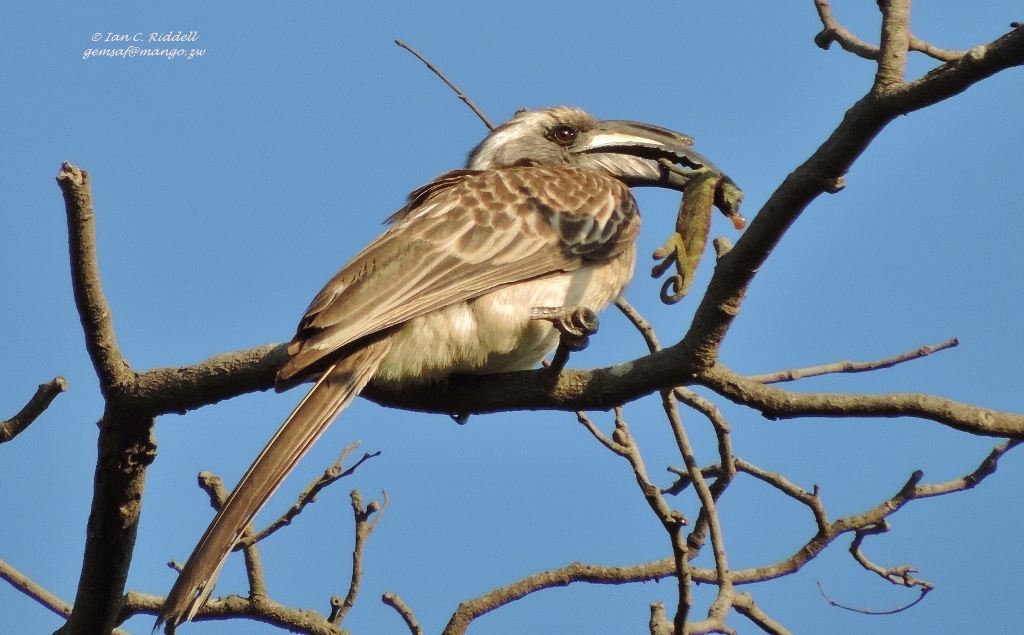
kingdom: Animalia
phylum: Chordata
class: Aves
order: Bucerotiformes
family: Bucerotidae
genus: Lophoceros
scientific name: Lophoceros nasutus
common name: African grey hornbill
